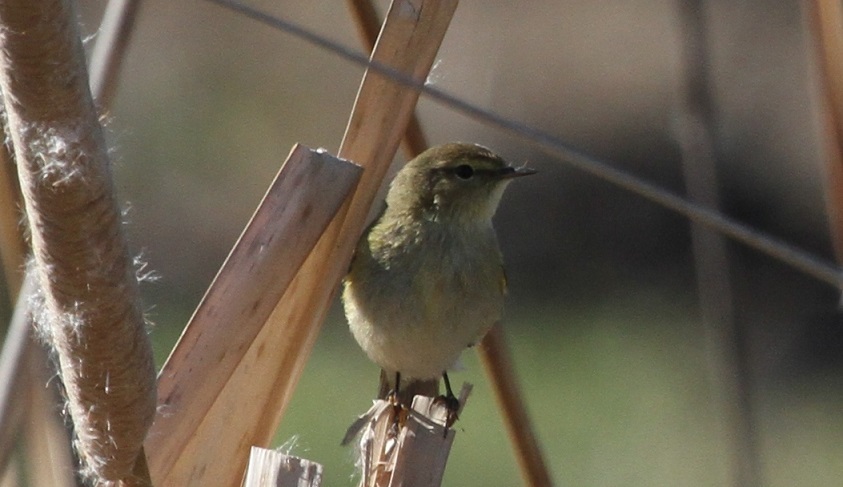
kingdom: Animalia
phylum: Chordata
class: Aves
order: Passeriformes
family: Phylloscopidae
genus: Phylloscopus
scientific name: Phylloscopus collybita
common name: Common chiffchaff
